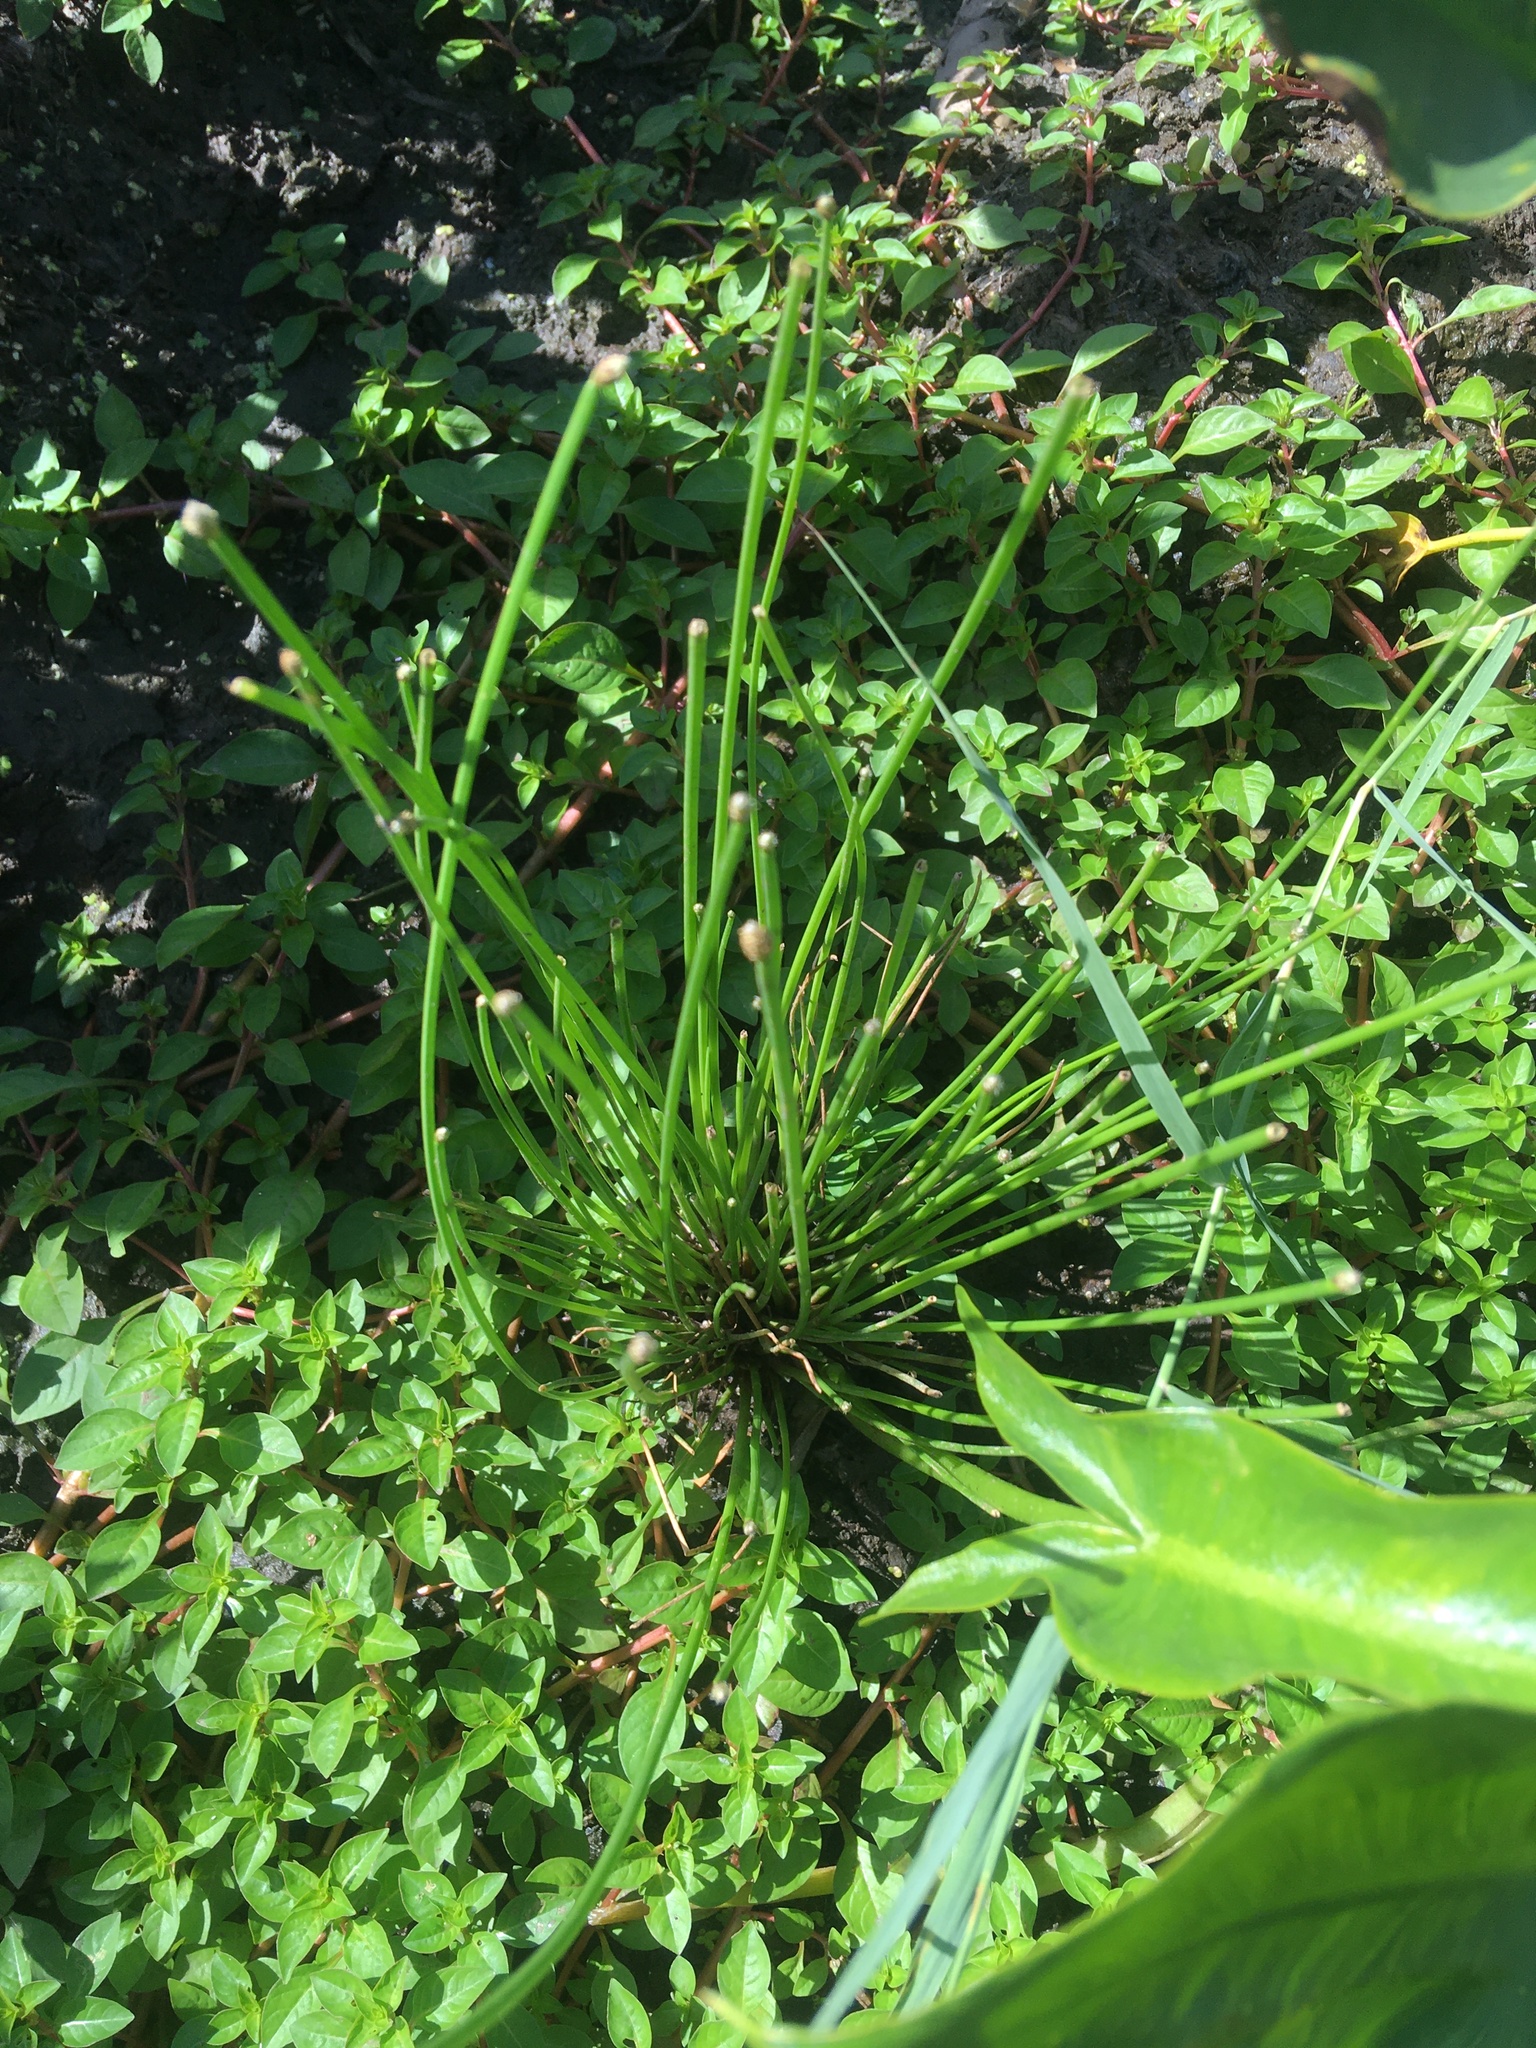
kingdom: Plantae
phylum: Tracheophyta
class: Liliopsida
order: Poales
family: Cyperaceae
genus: Eleocharis
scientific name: Eleocharis obtusa
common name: Blunt spikerush
